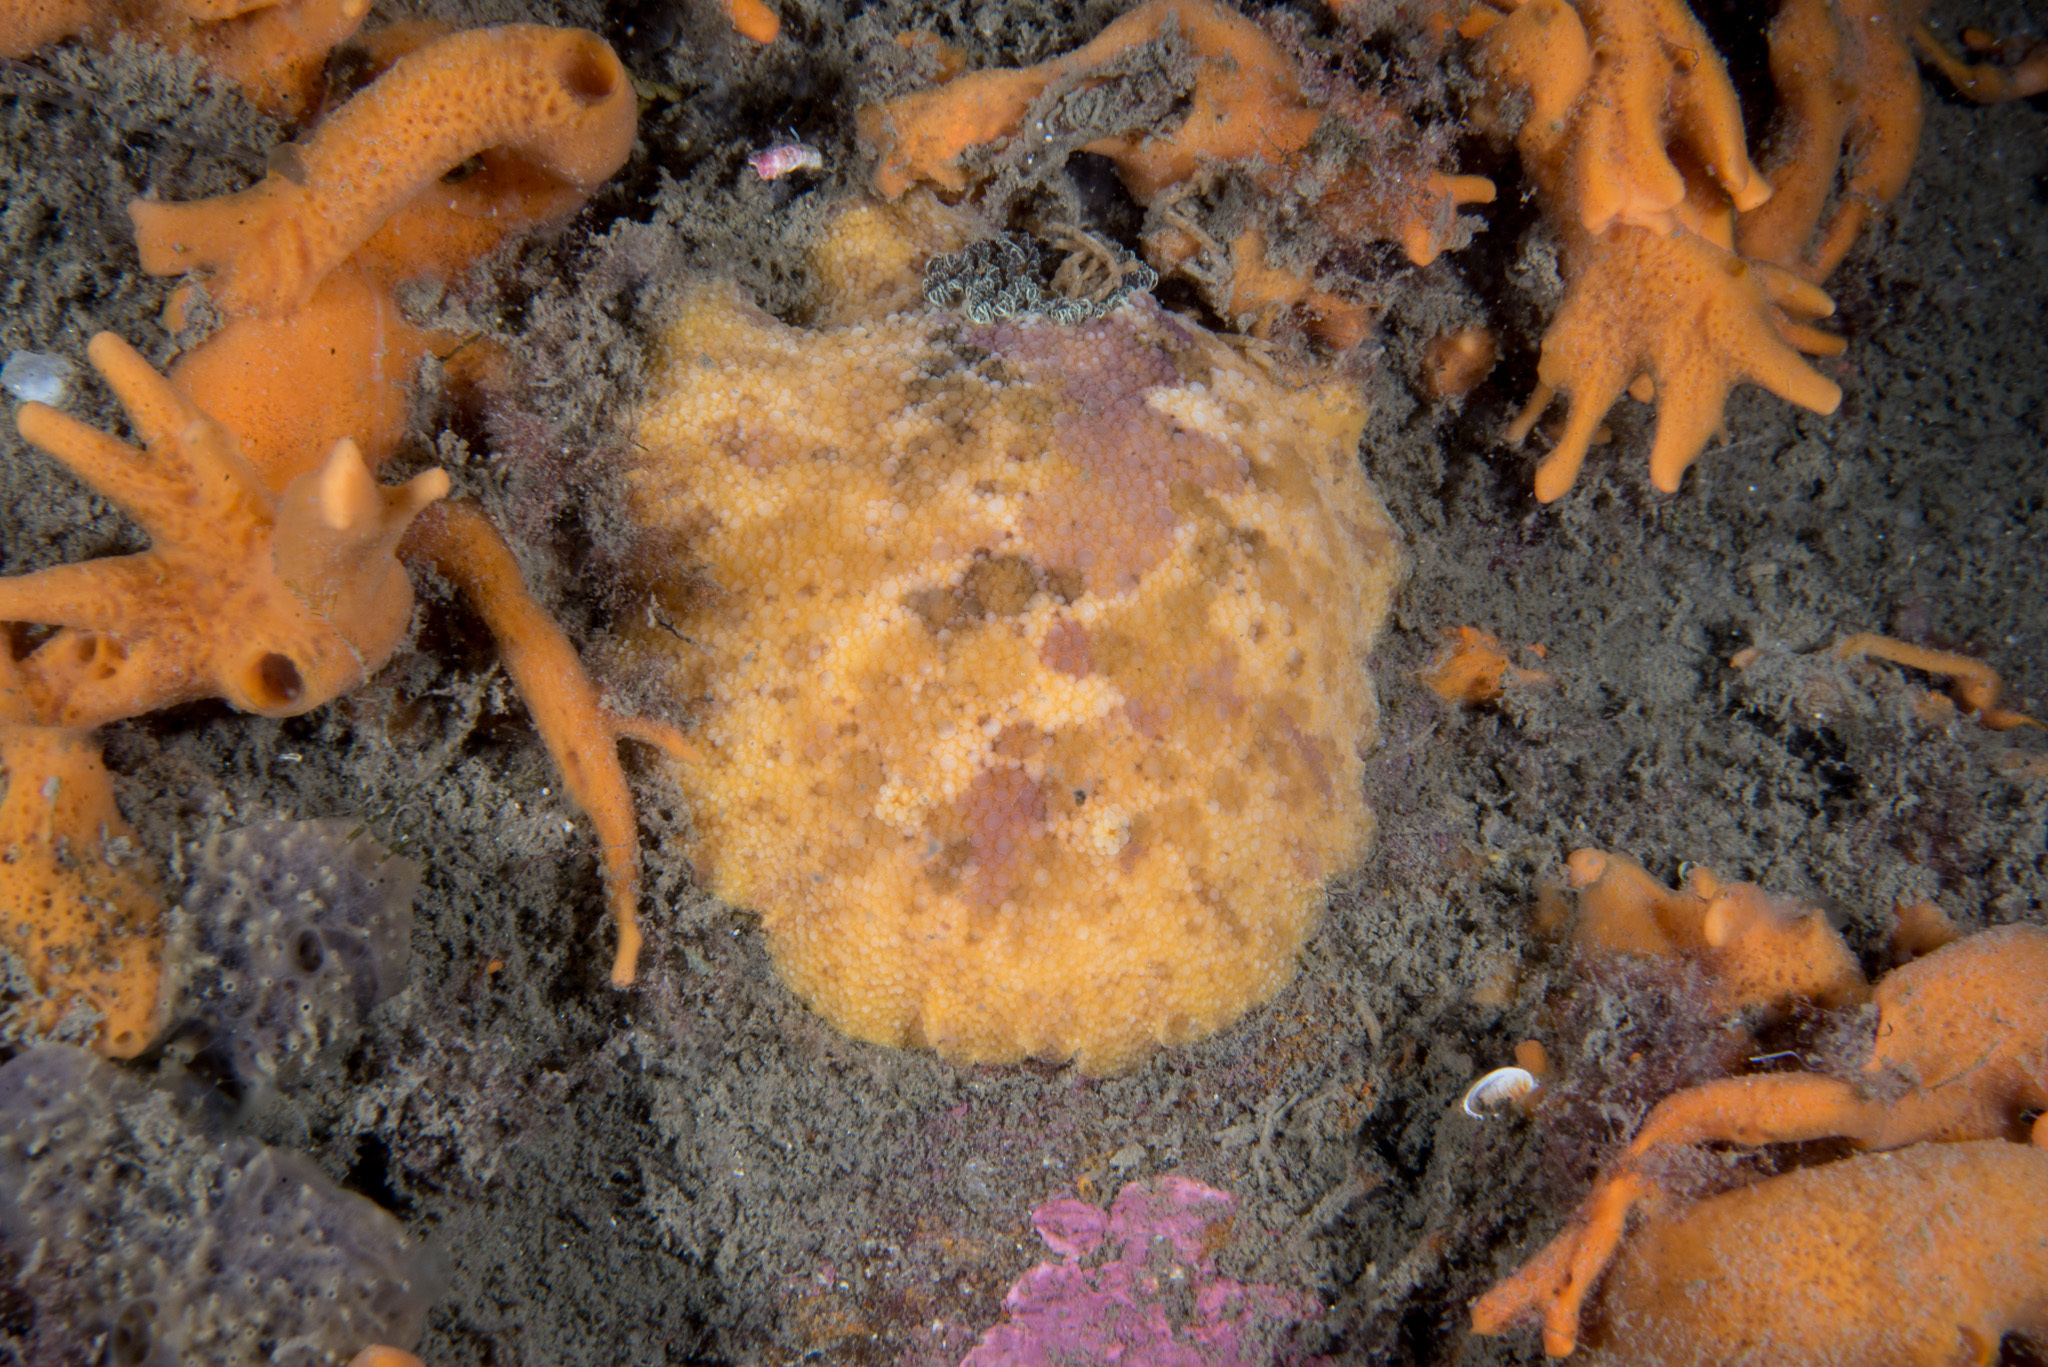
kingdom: Animalia
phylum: Mollusca
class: Gastropoda
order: Nudibranchia
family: Dorididae
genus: Doris
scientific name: Doris pseudoargus
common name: Sea lemon
